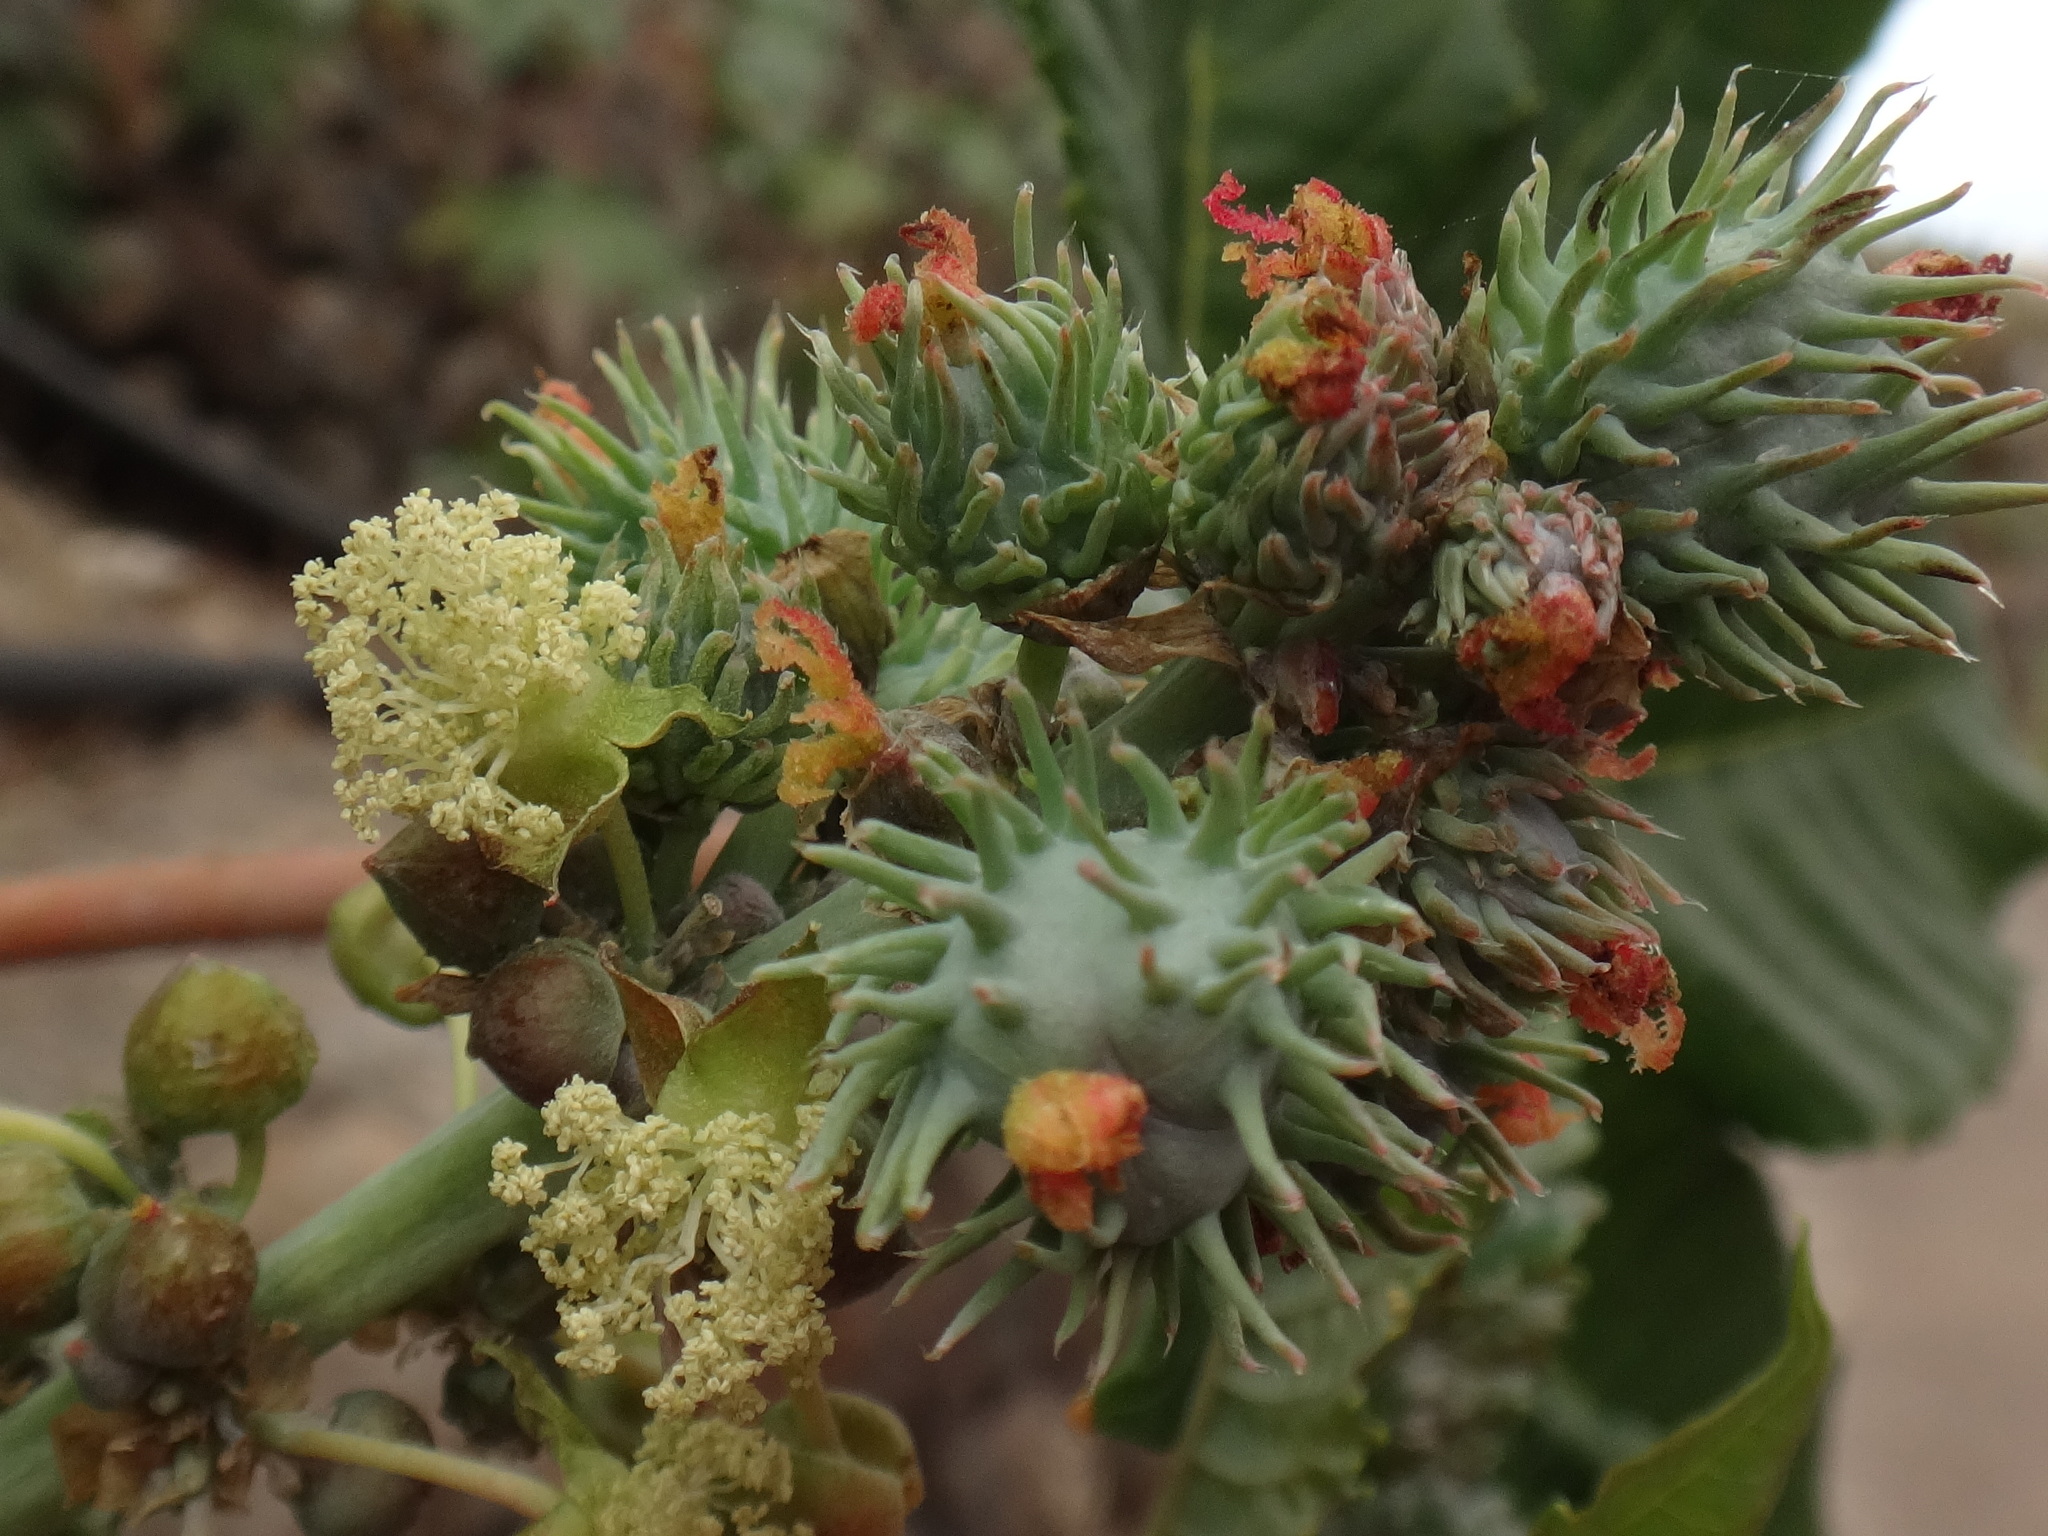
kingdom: Plantae
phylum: Tracheophyta
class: Magnoliopsida
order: Malpighiales
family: Euphorbiaceae
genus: Ricinus
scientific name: Ricinus communis
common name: Castor-oil-plant
